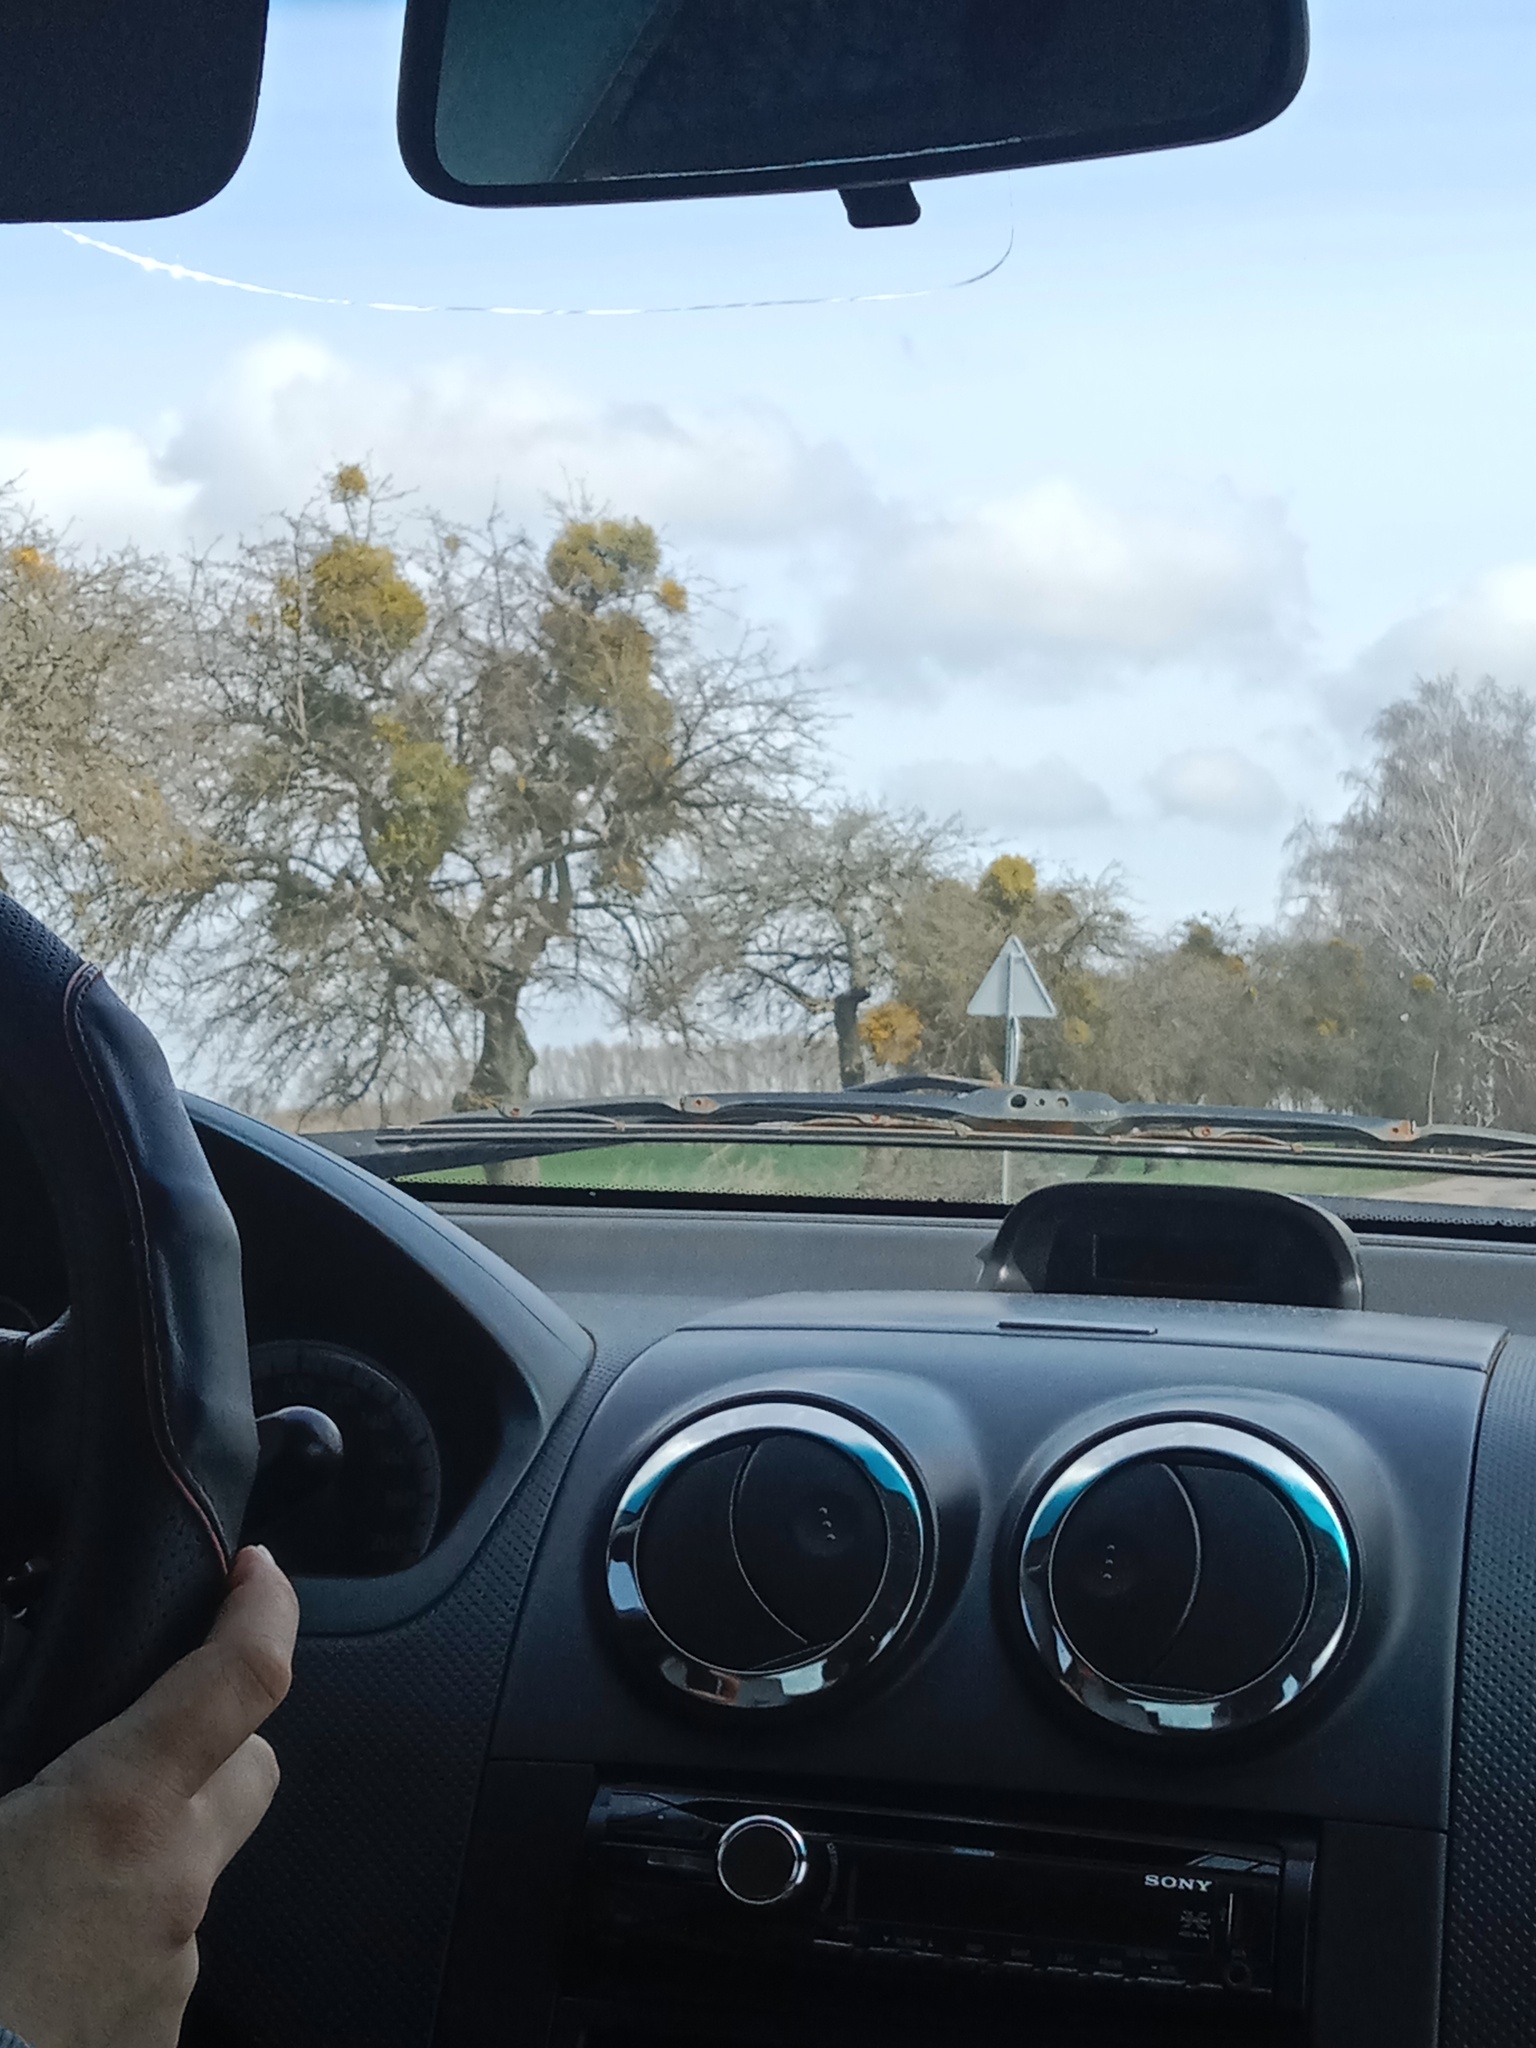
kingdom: Plantae
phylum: Tracheophyta
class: Magnoliopsida
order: Santalales
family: Viscaceae
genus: Viscum
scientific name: Viscum album
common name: Mistletoe
